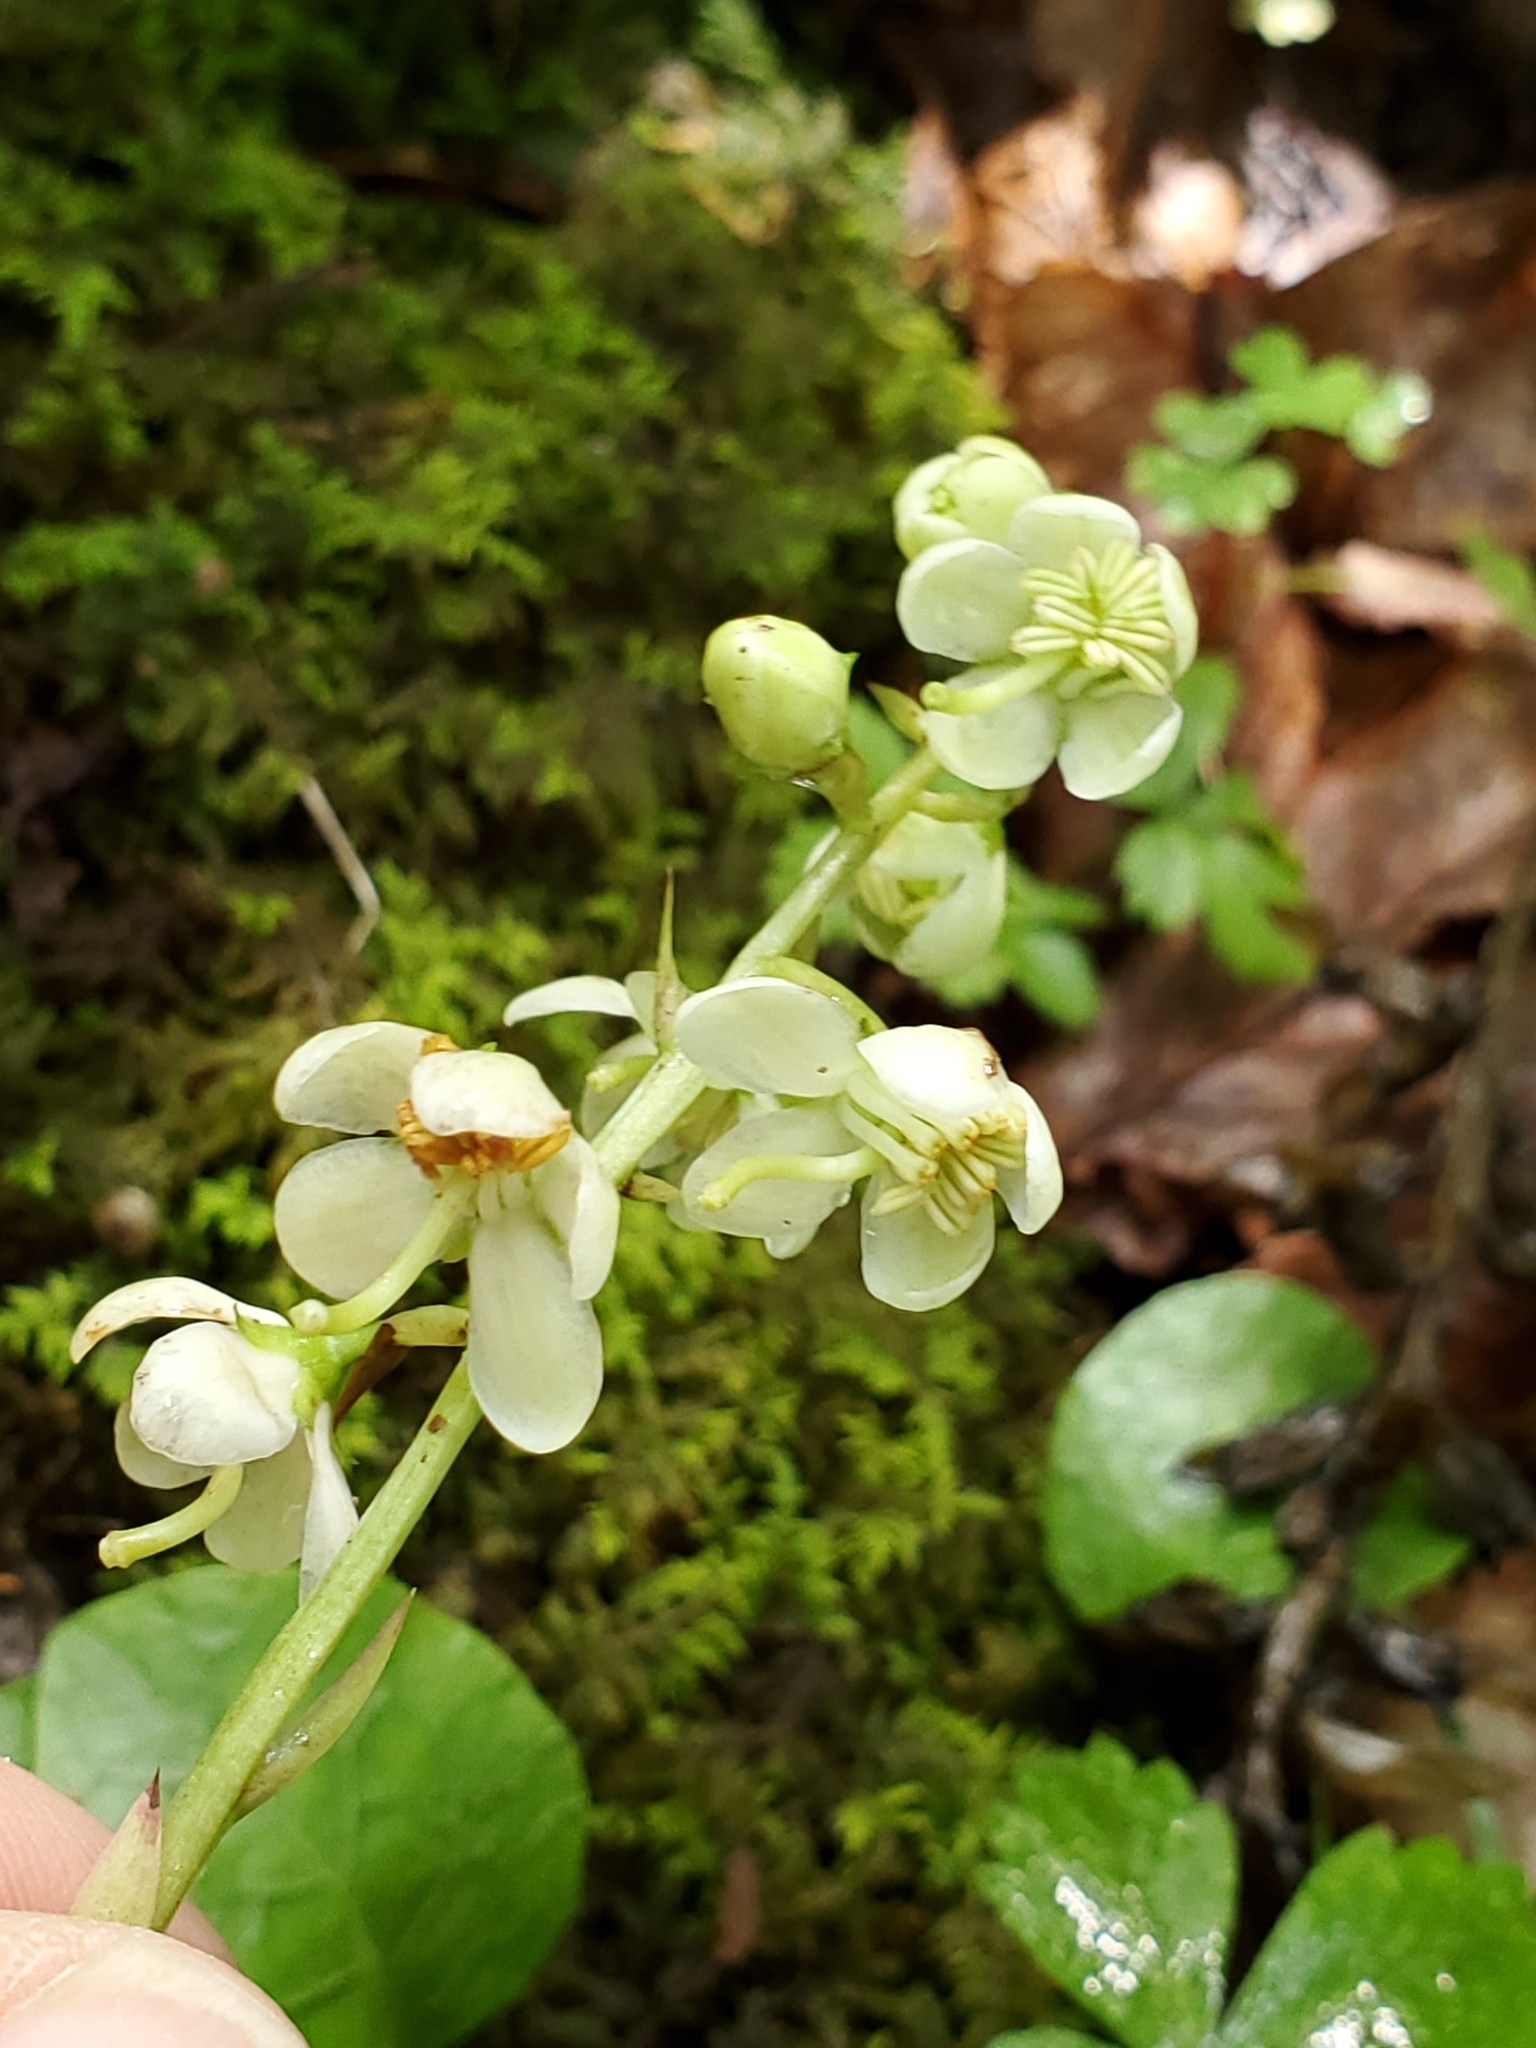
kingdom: Plantae
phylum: Tracheophyta
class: Magnoliopsida
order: Ericales
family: Ericaceae
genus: Pyrola
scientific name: Pyrola americana
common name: American wintergreen
